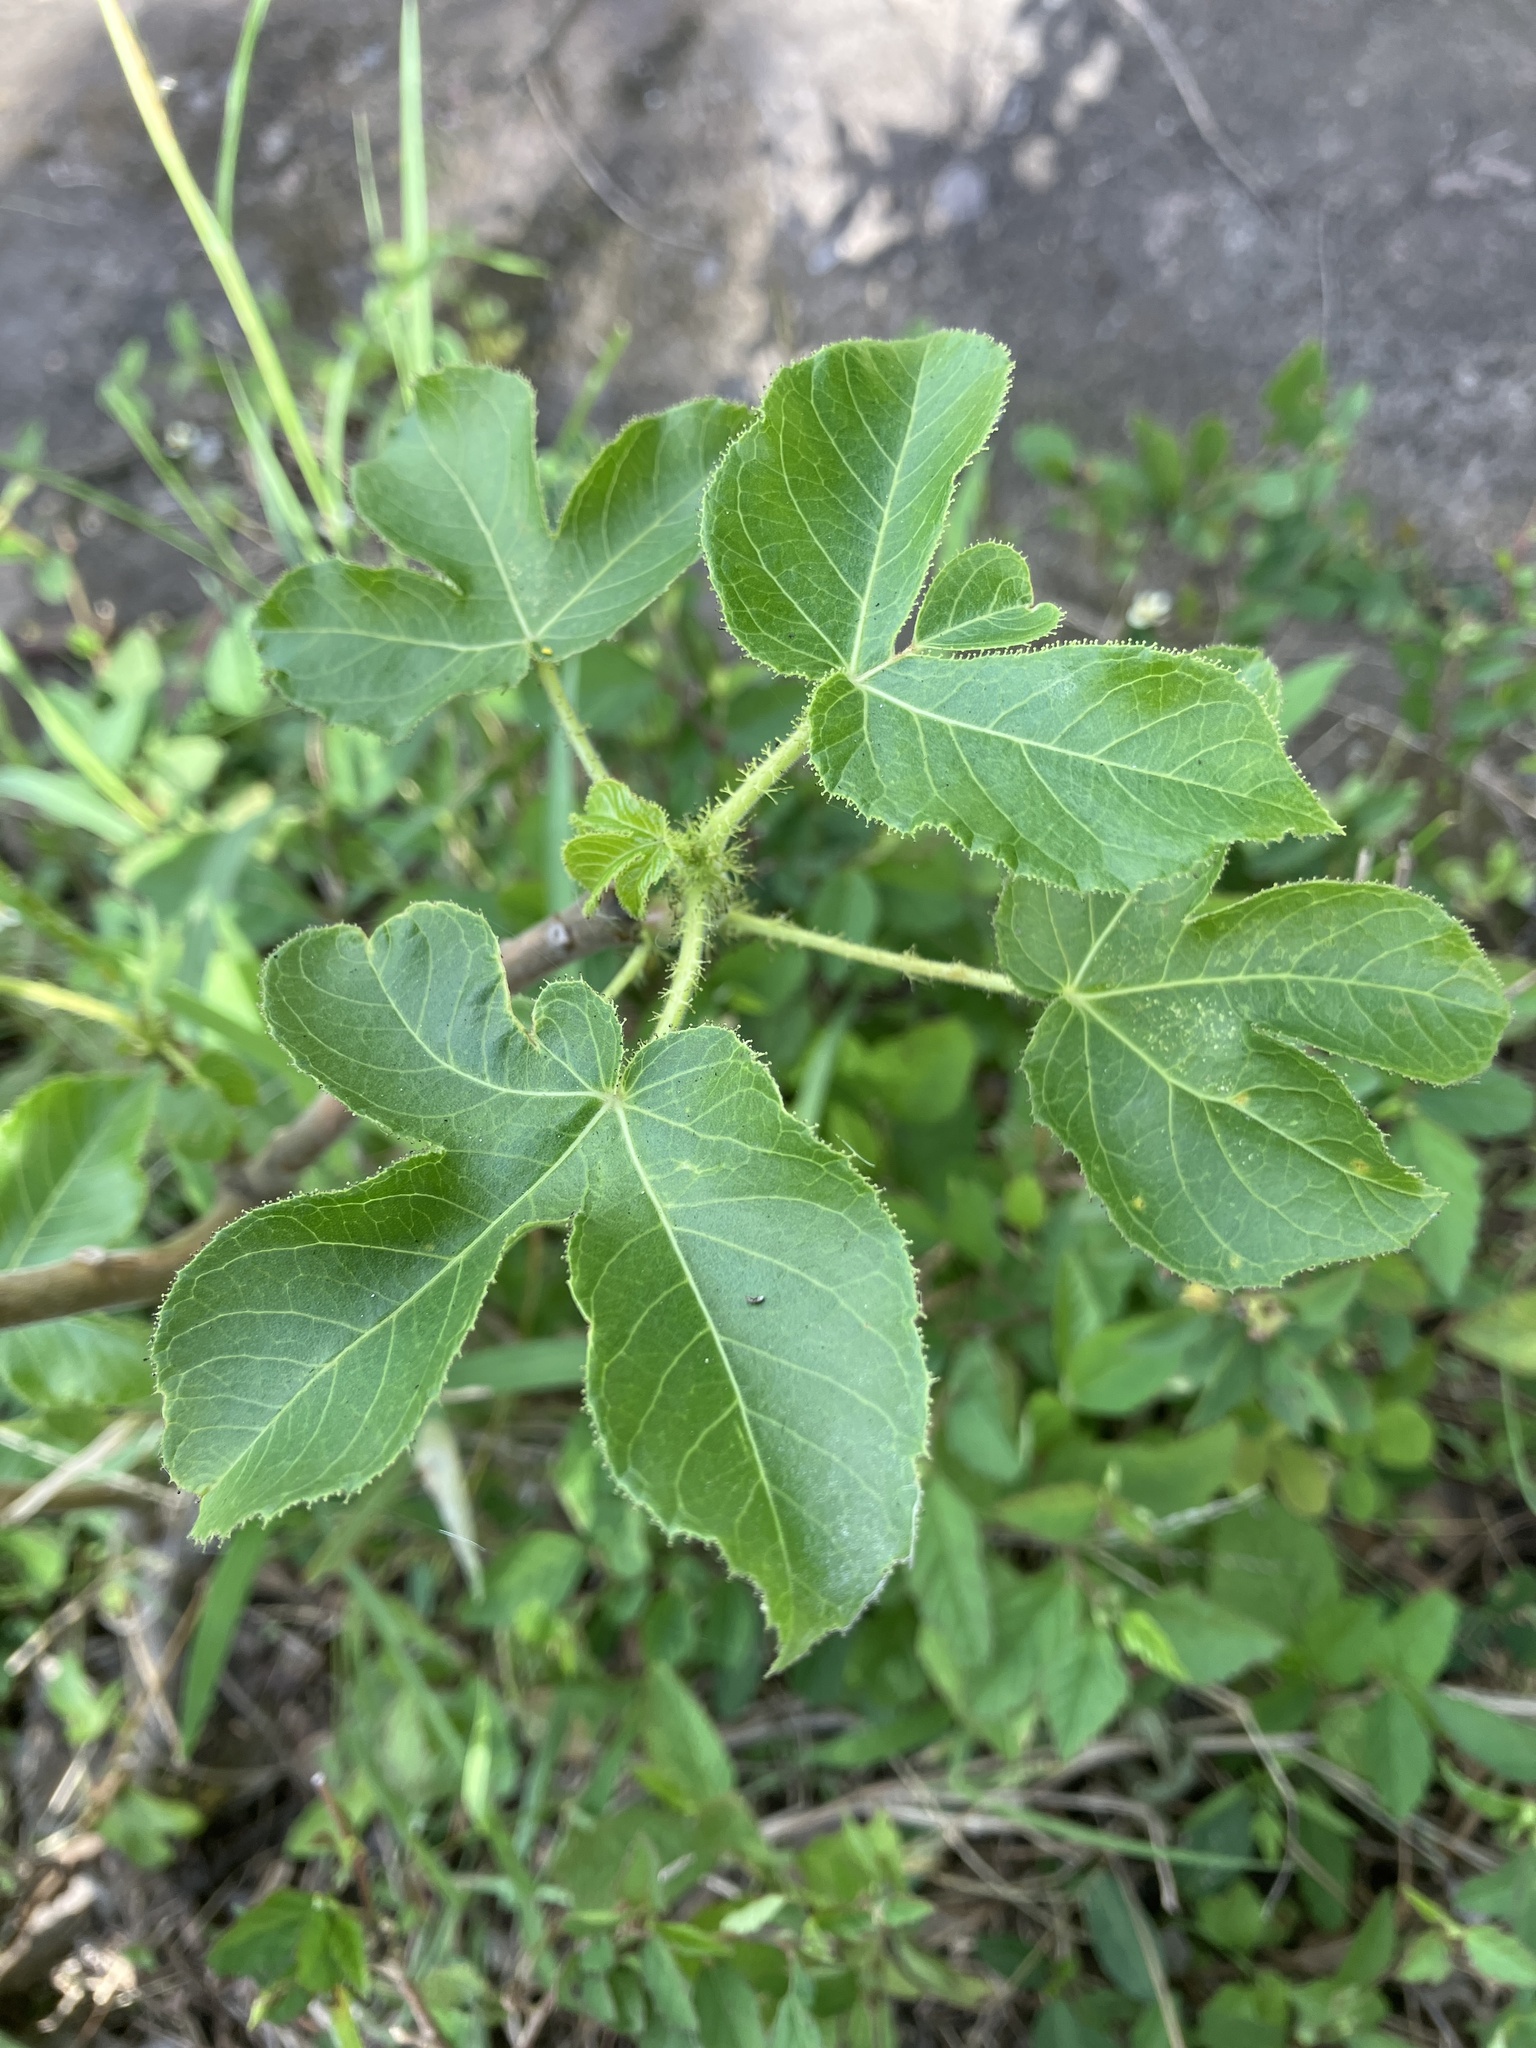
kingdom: Plantae
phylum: Tracheophyta
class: Magnoliopsida
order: Malpighiales
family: Euphorbiaceae
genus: Jatropha
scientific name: Jatropha gossypiifolia
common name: Bellyache bush
